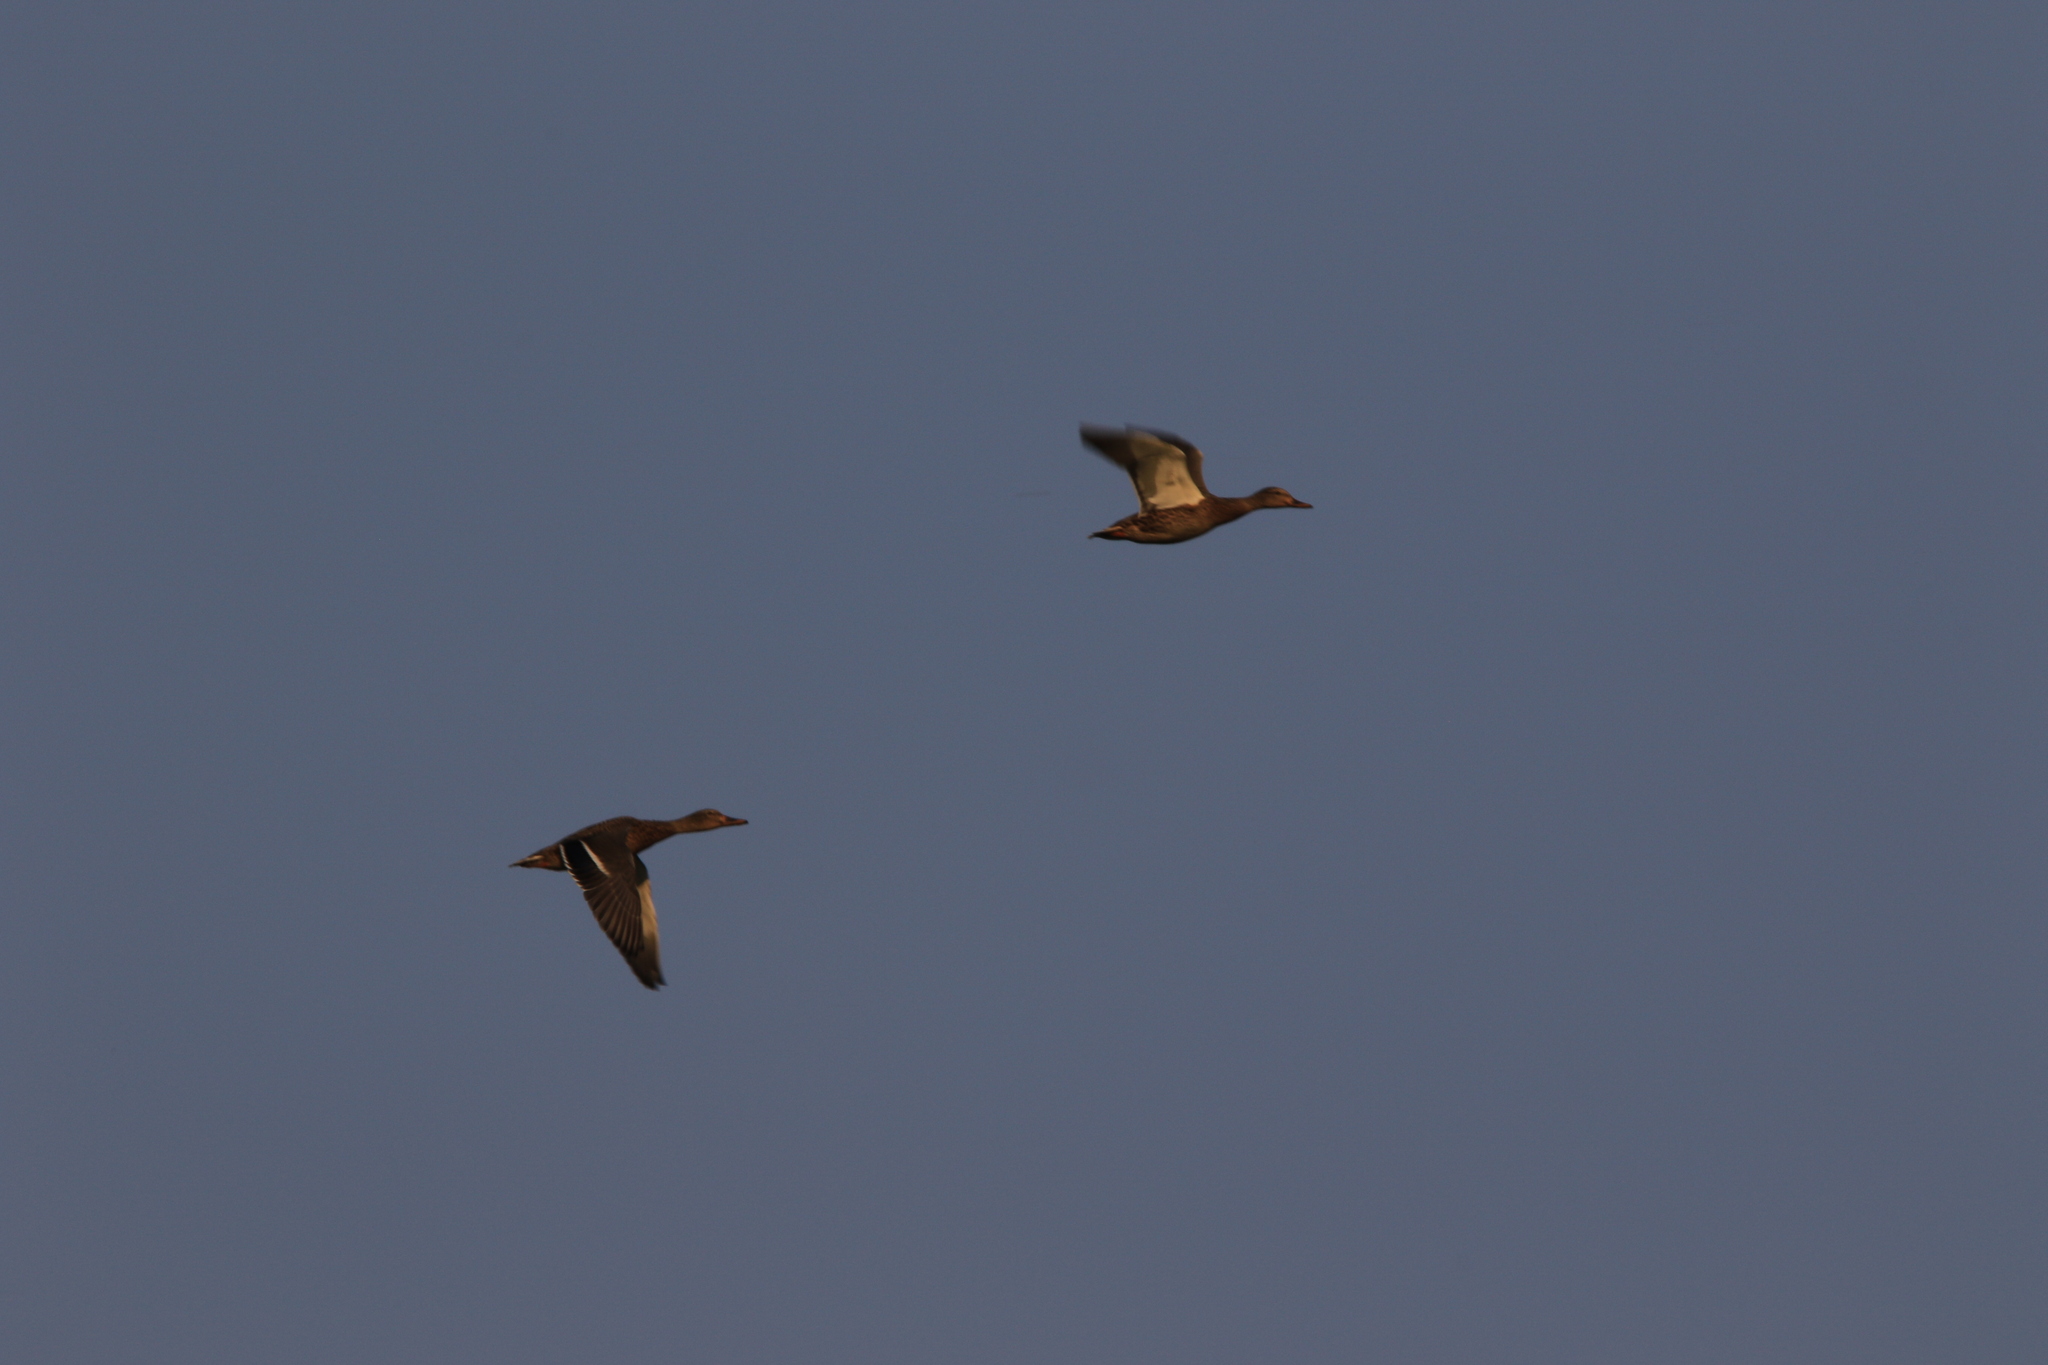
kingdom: Animalia
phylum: Chordata
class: Aves
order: Anseriformes
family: Anatidae
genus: Anas
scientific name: Anas platyrhynchos
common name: Mallard
